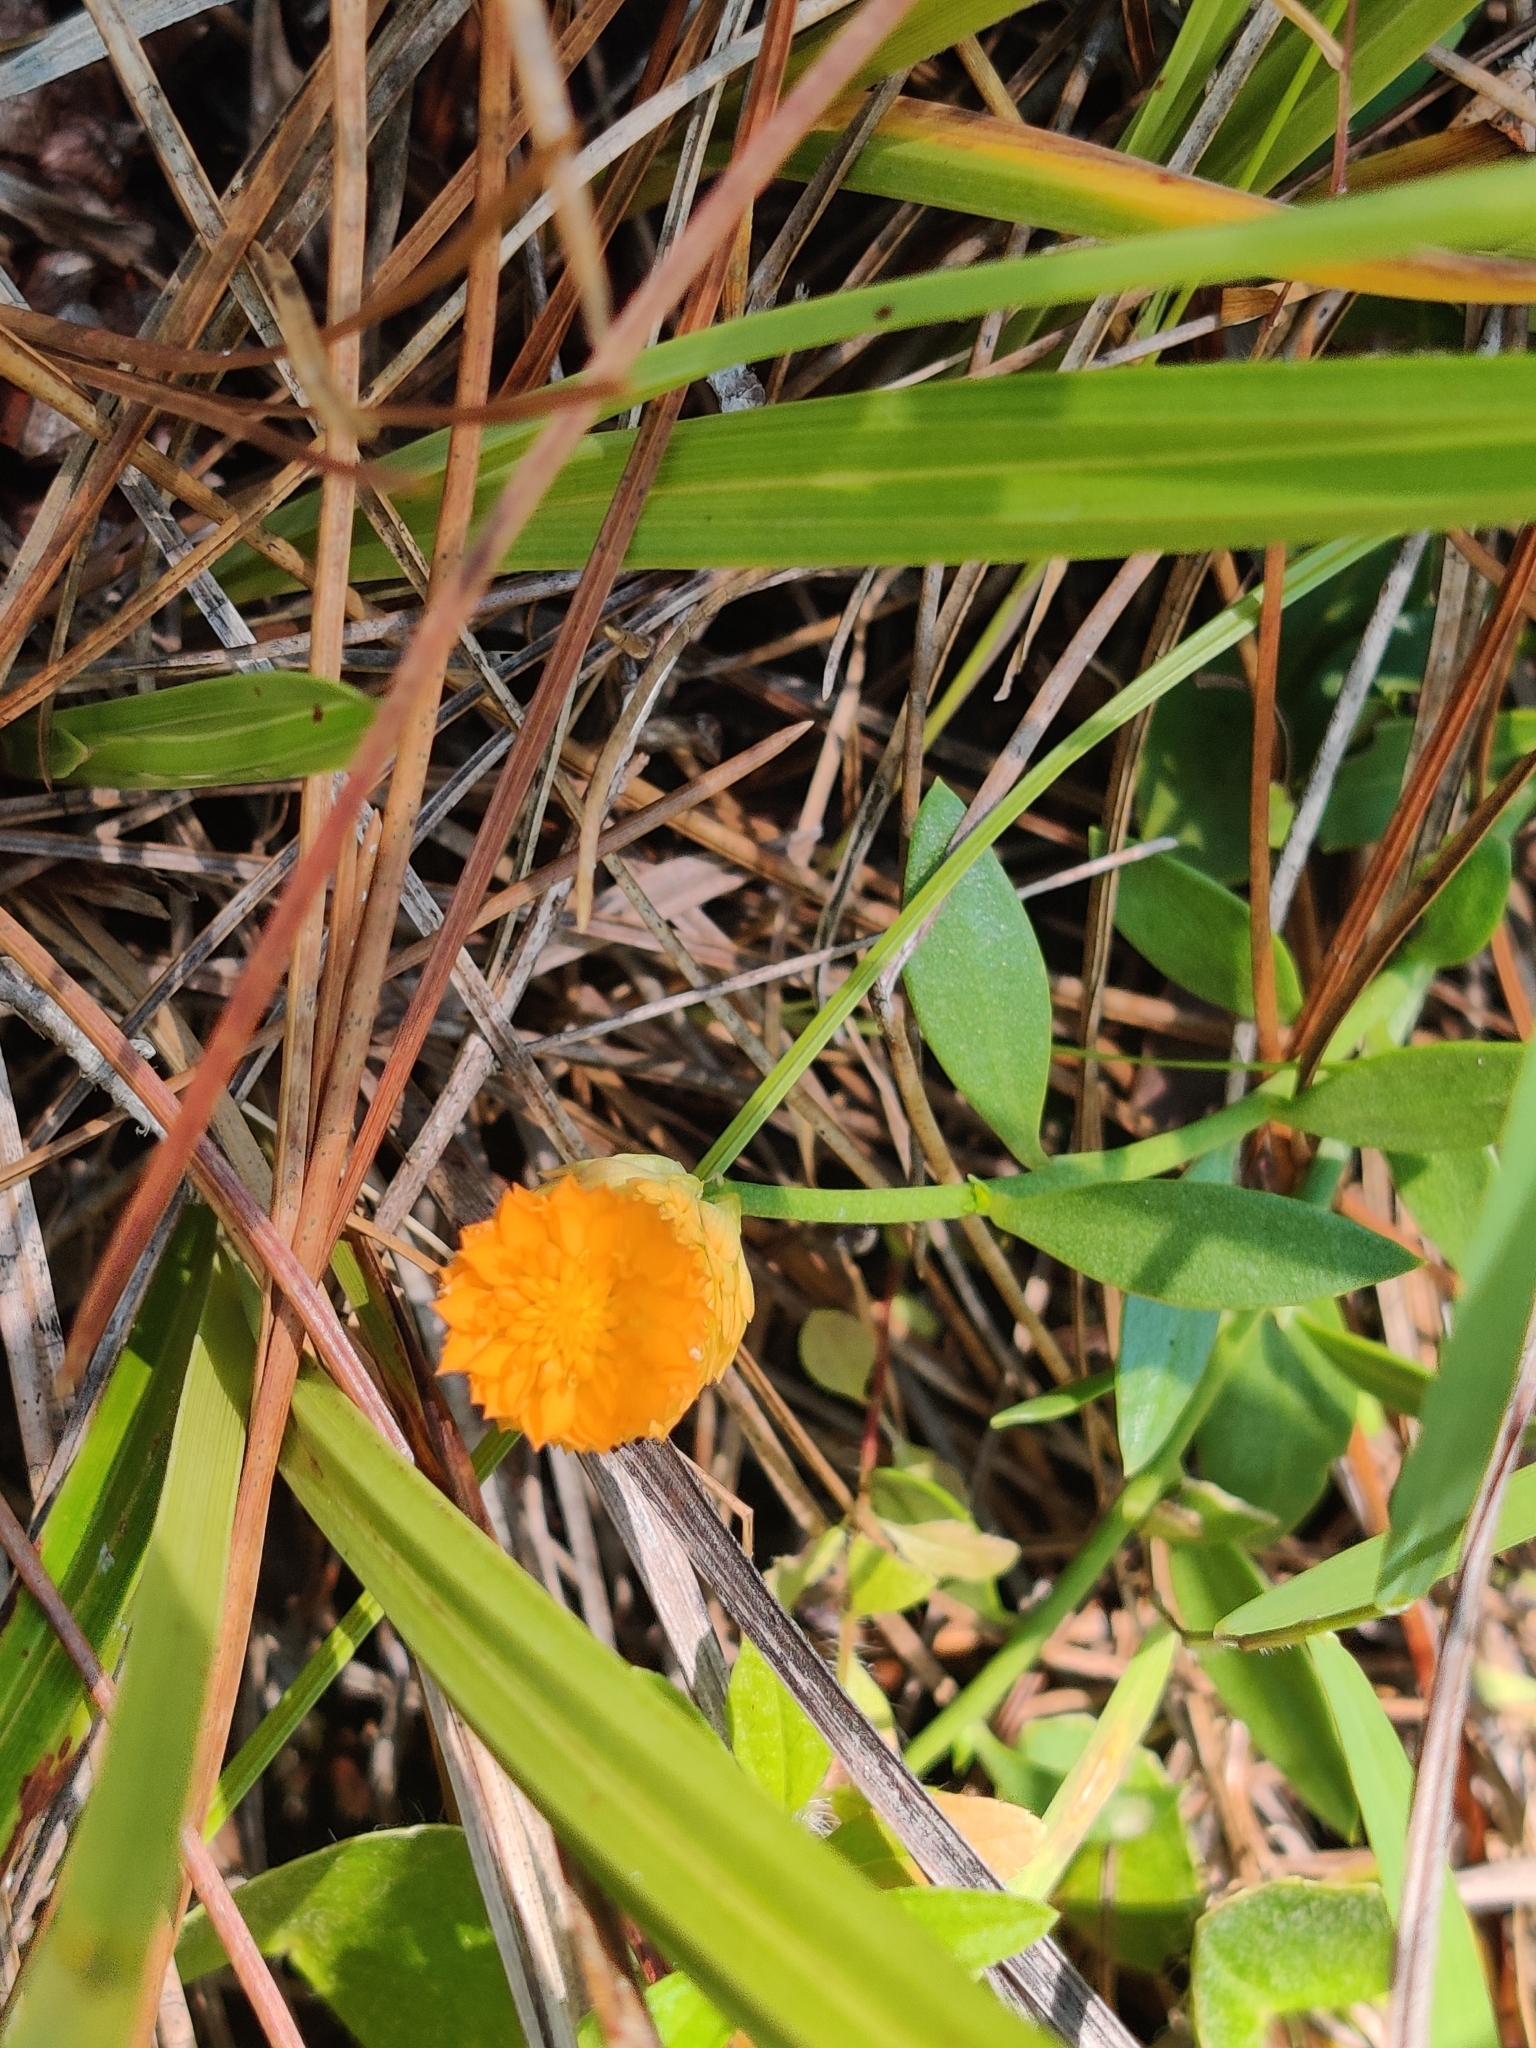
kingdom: Plantae
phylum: Tracheophyta
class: Magnoliopsida
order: Fabales
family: Polygalaceae
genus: Polygala
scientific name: Polygala lutea
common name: Orange milkwort
